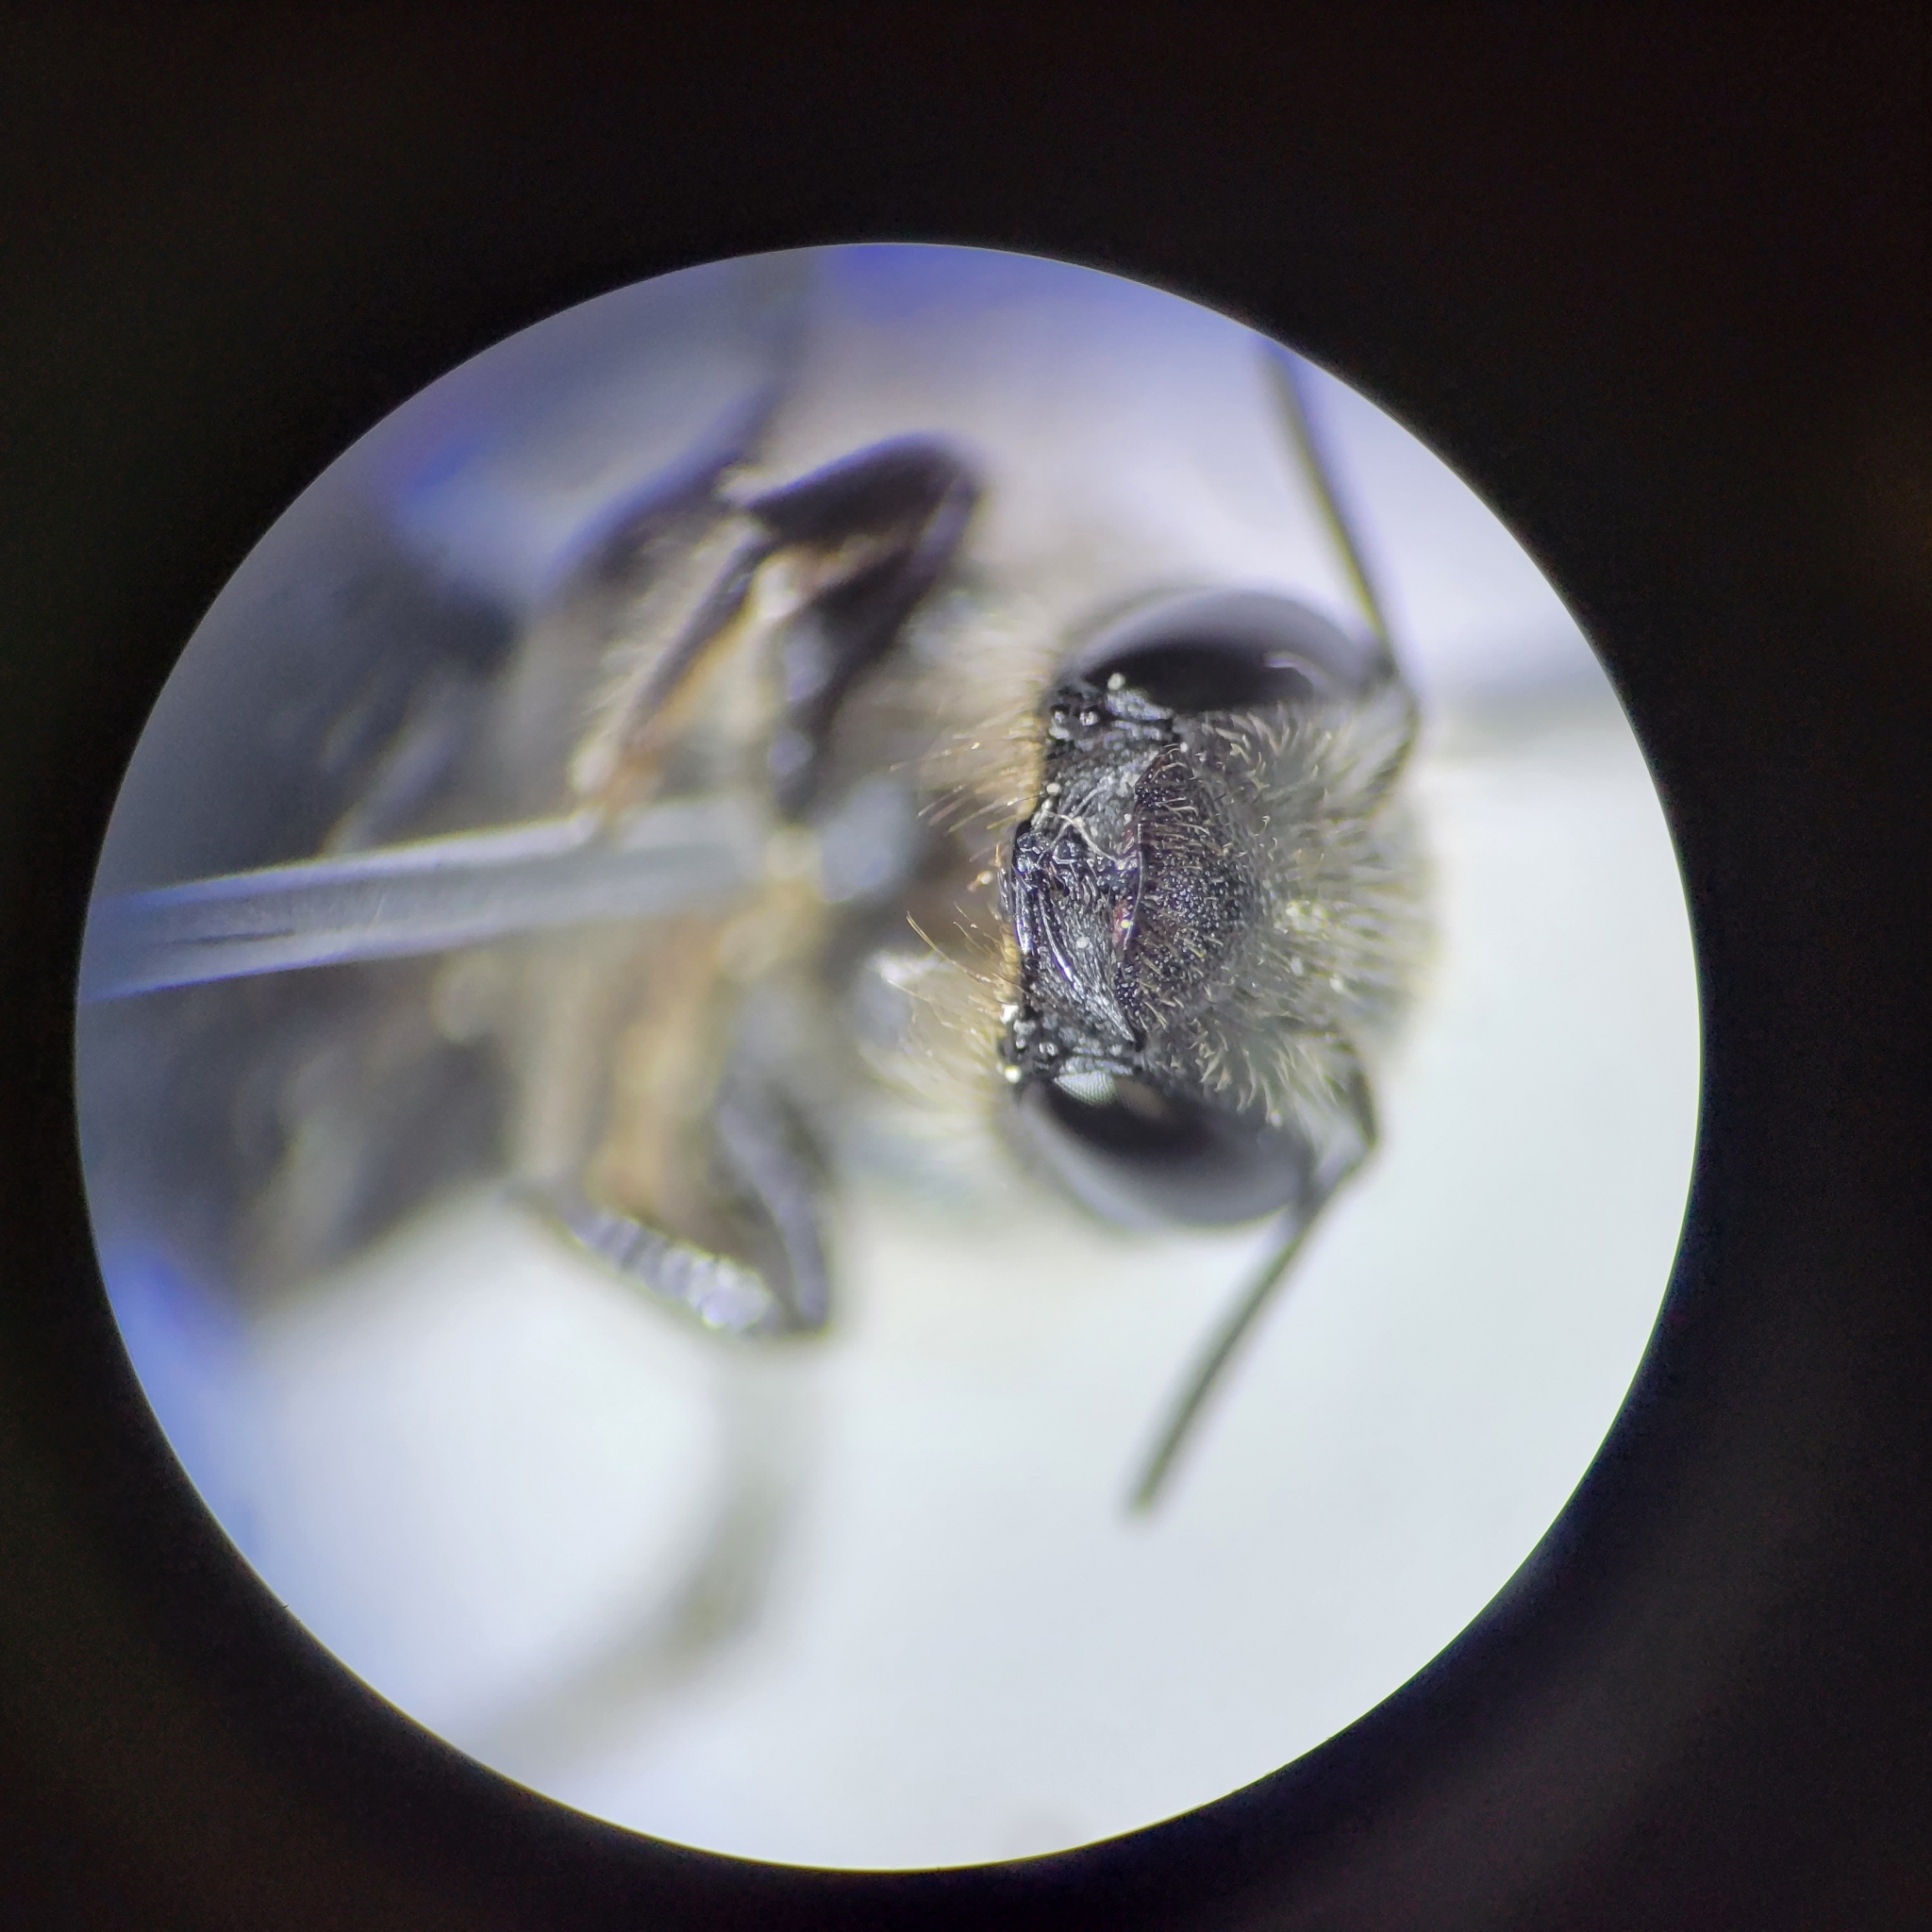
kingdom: Animalia
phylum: Arthropoda
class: Insecta
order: Hymenoptera
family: Megachilidae
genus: Osmia
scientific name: Osmia virga
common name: Twig mason bee
